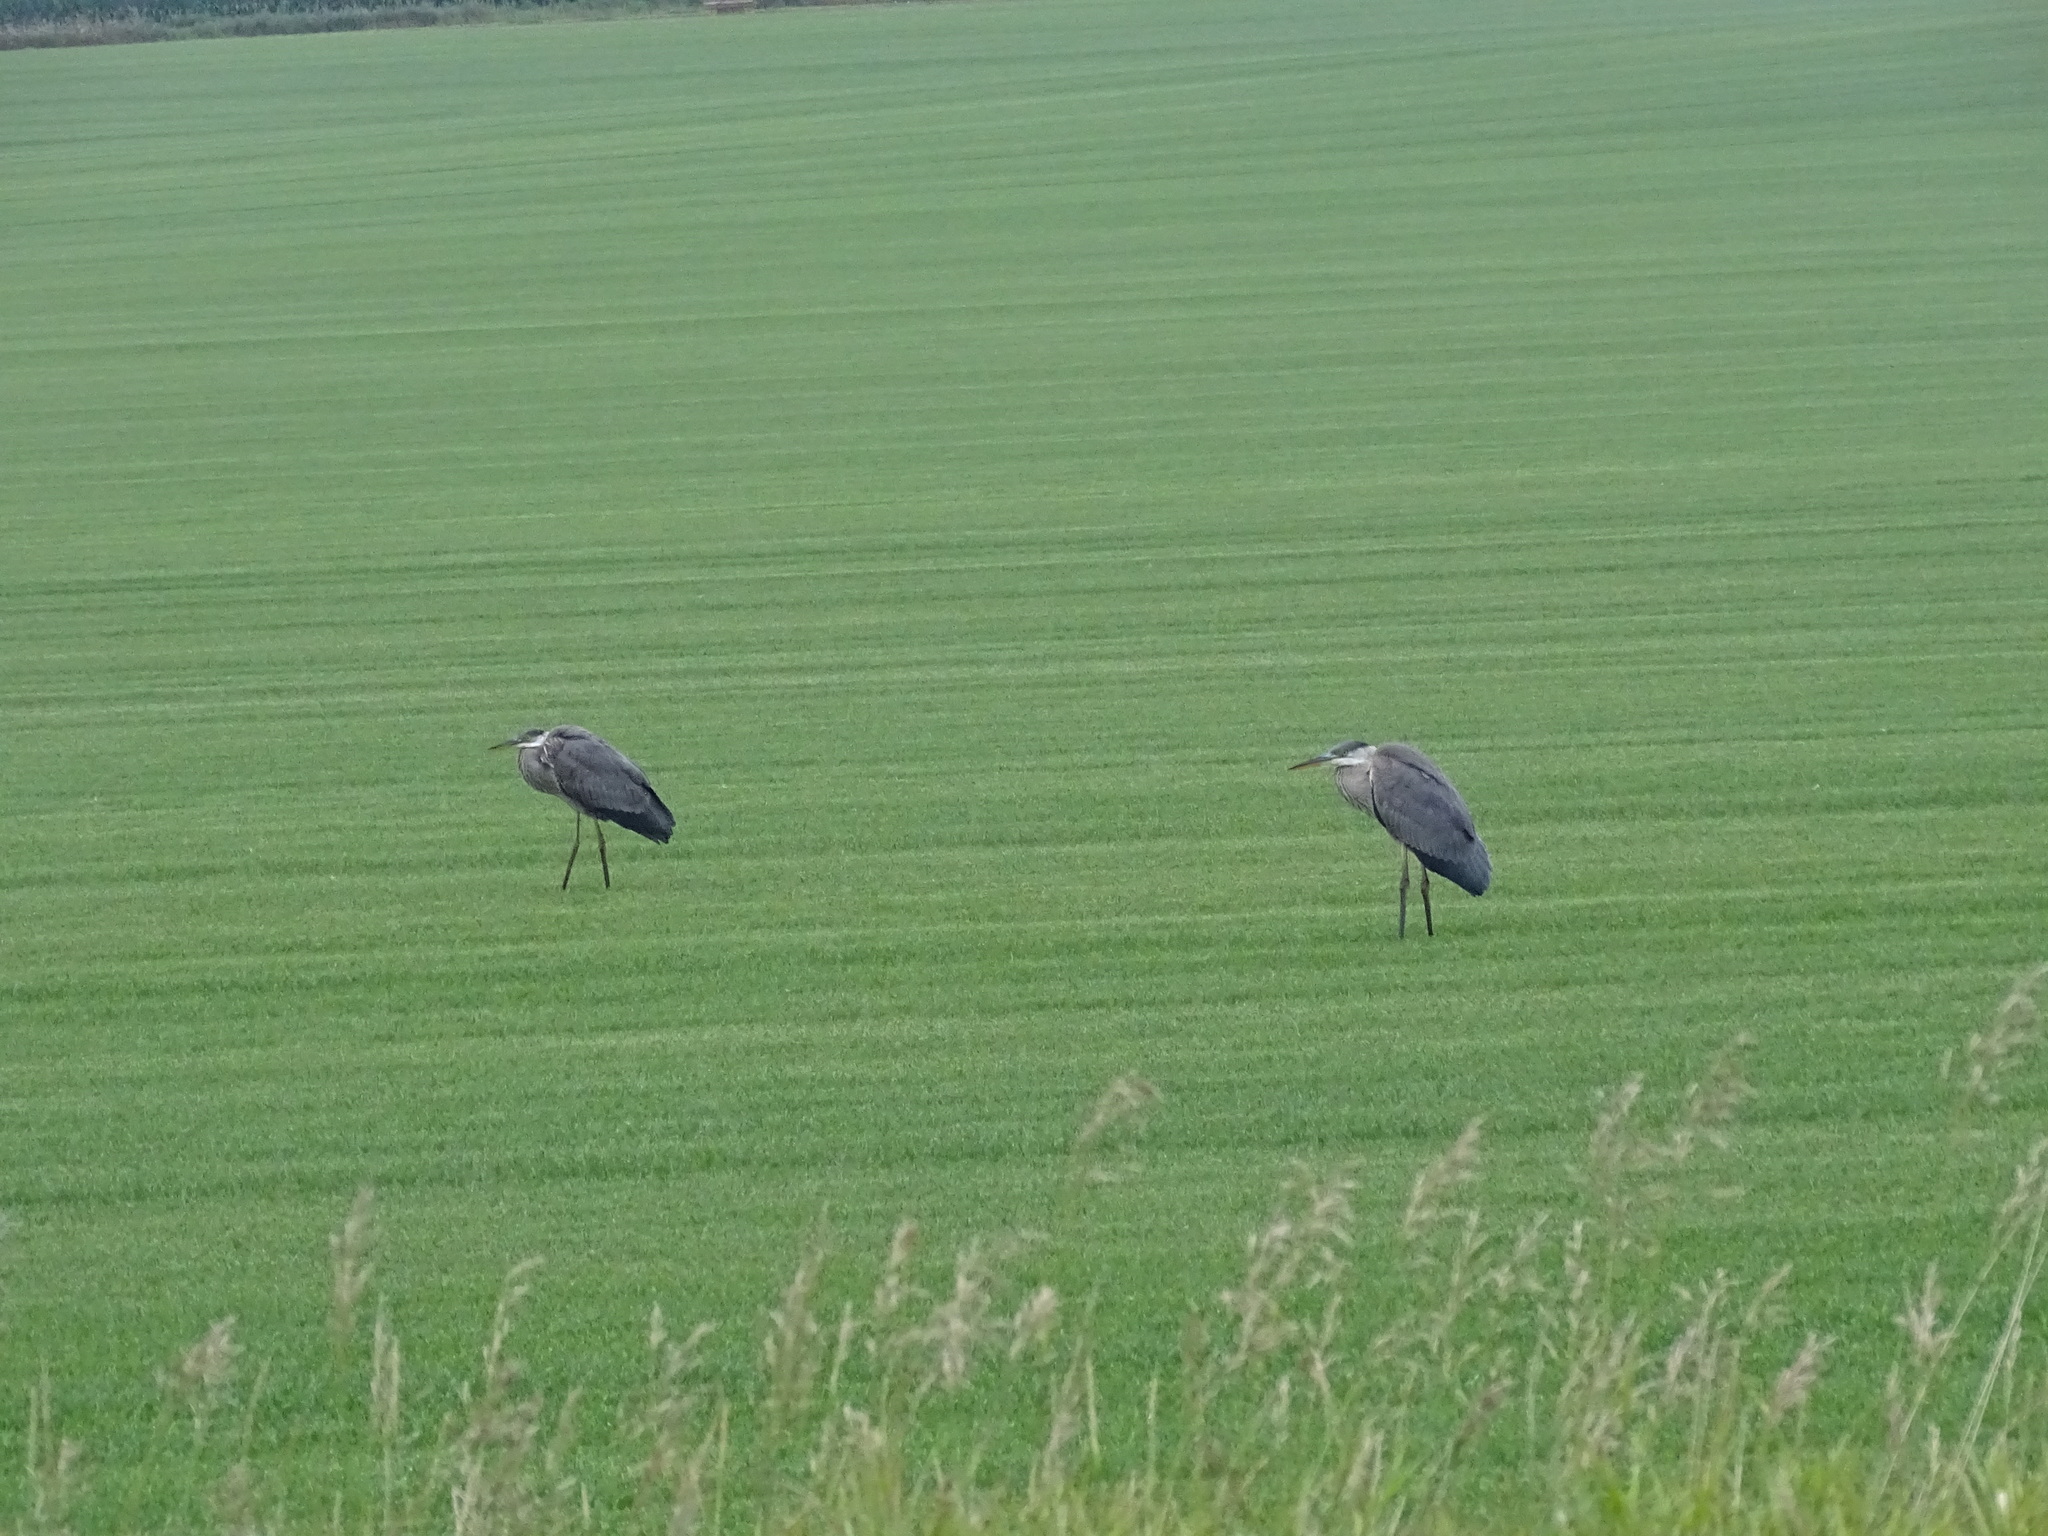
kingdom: Animalia
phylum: Chordata
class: Aves
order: Pelecaniformes
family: Ardeidae
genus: Ardea
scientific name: Ardea herodias
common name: Great blue heron
